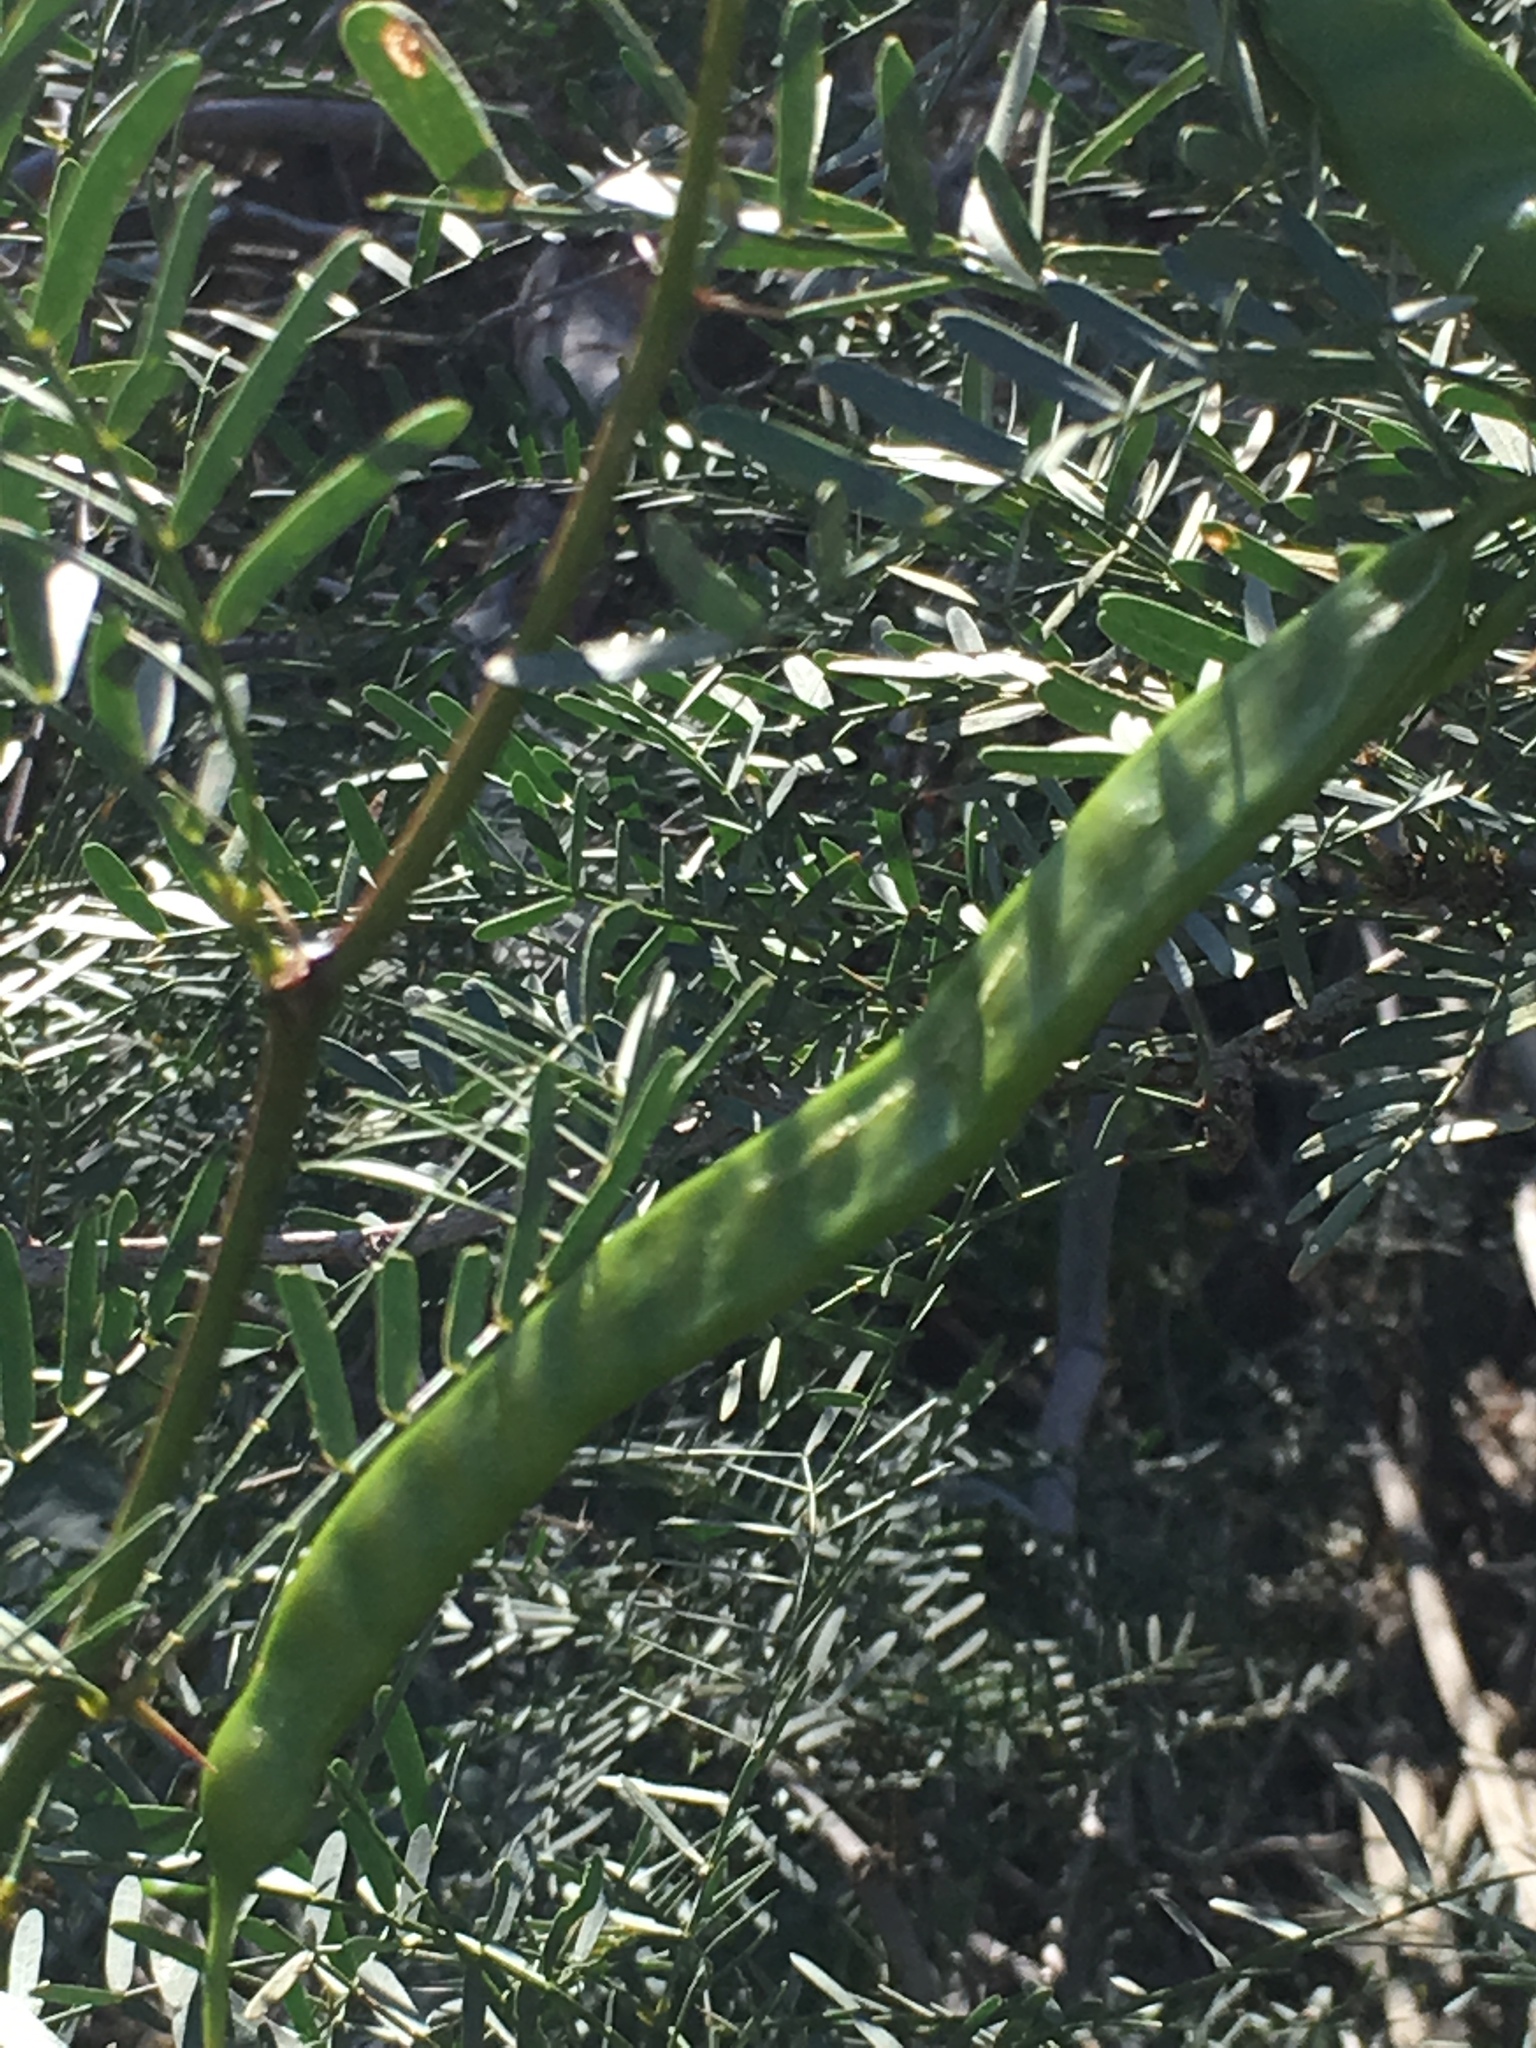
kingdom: Plantae
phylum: Tracheophyta
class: Magnoliopsida
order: Fabales
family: Fabaceae
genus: Prosopis
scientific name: Prosopis pubescens
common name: Screw-bean
